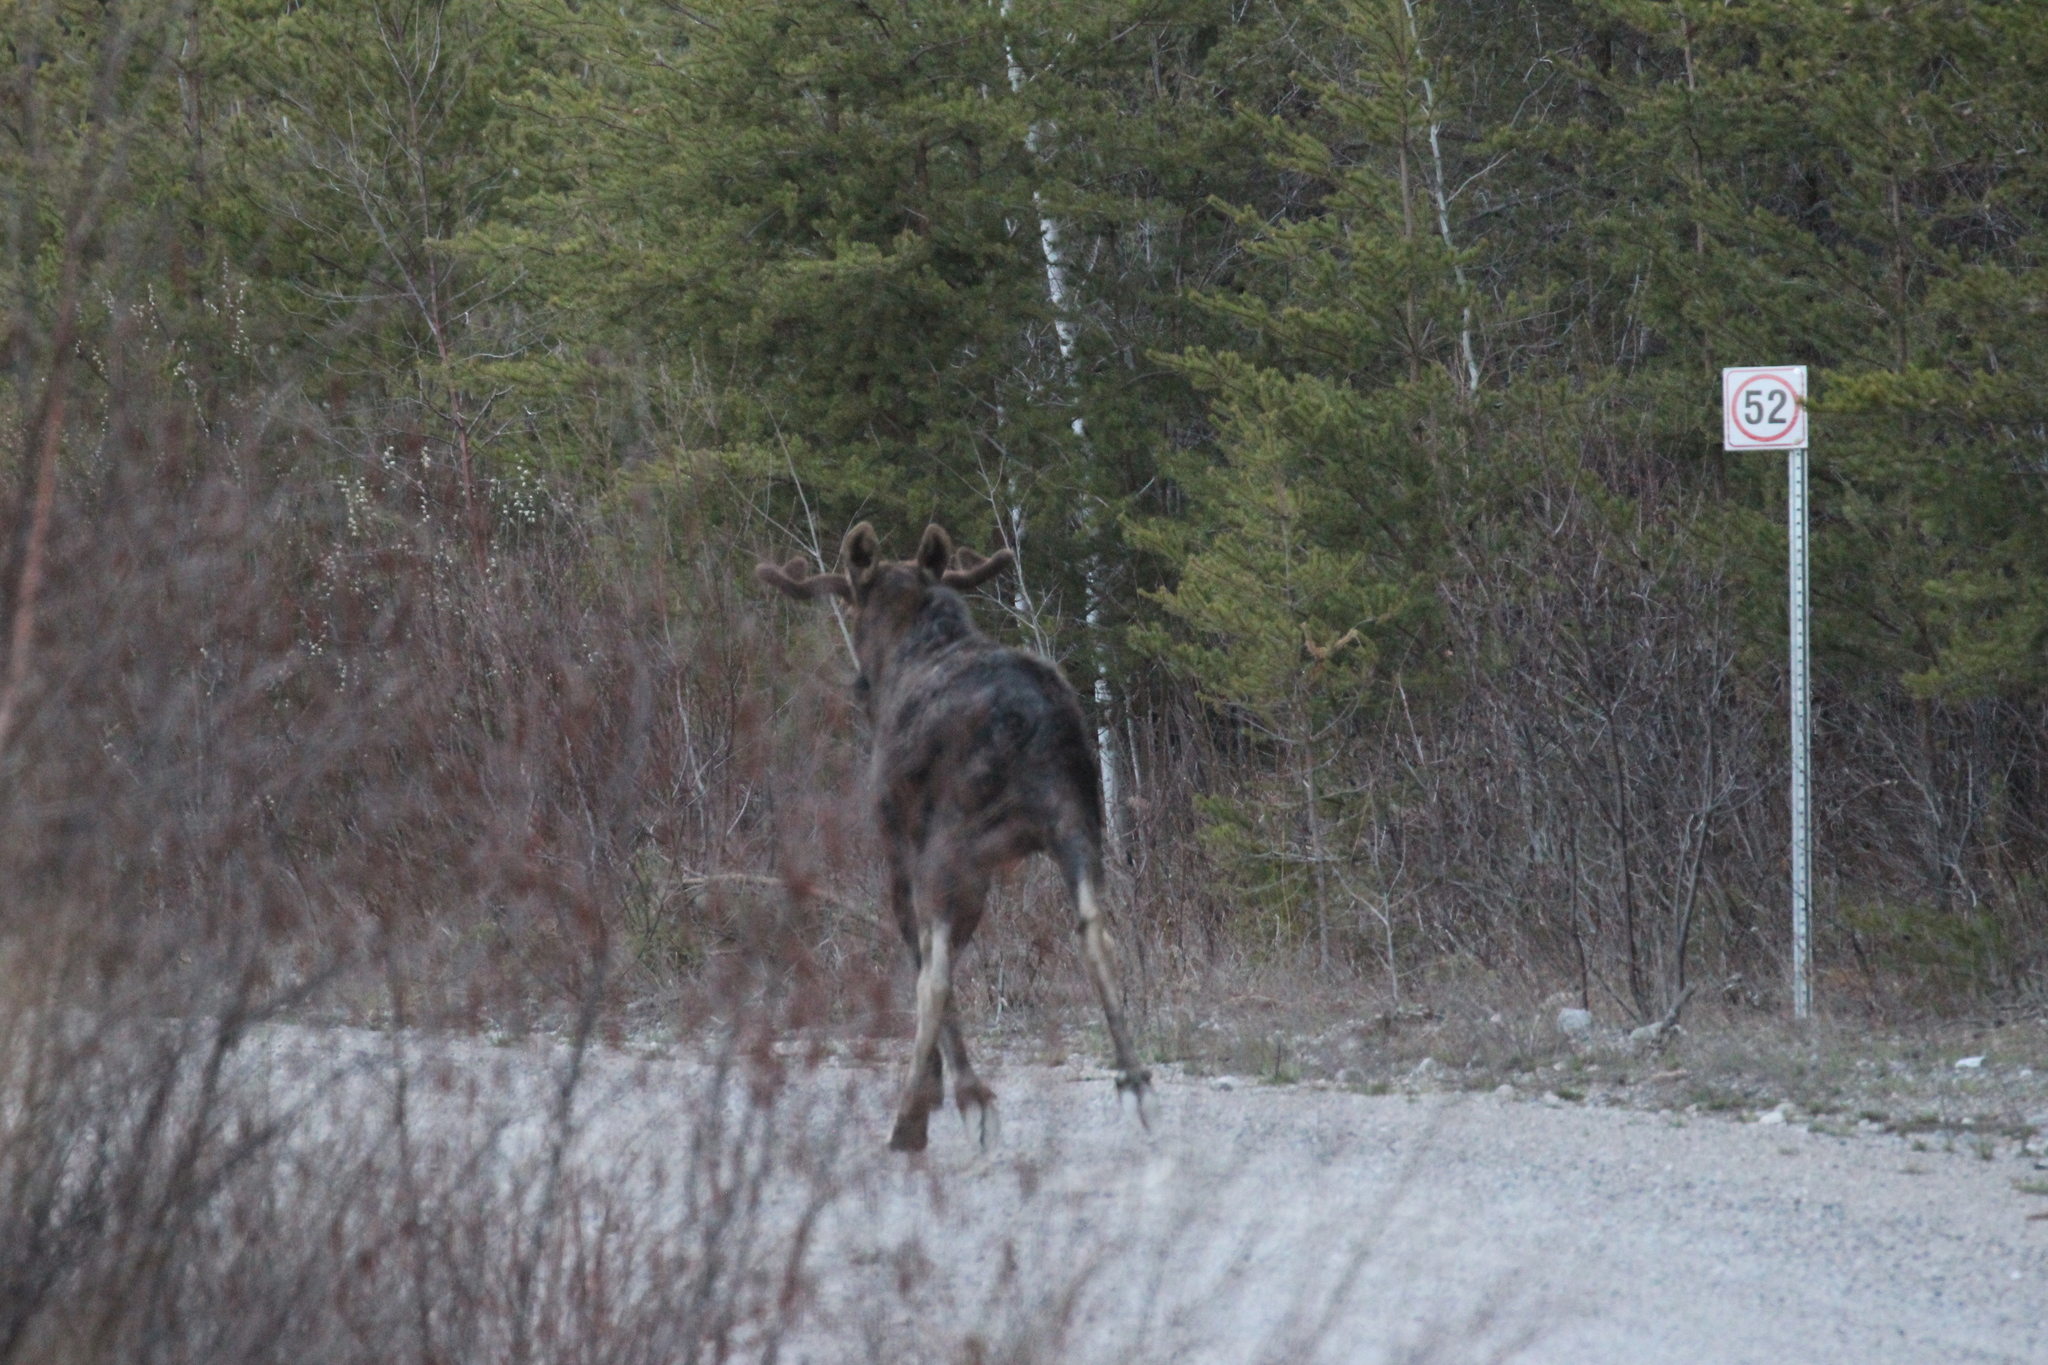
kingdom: Animalia
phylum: Chordata
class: Mammalia
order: Artiodactyla
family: Cervidae
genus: Alces
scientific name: Alces alces
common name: Moose
